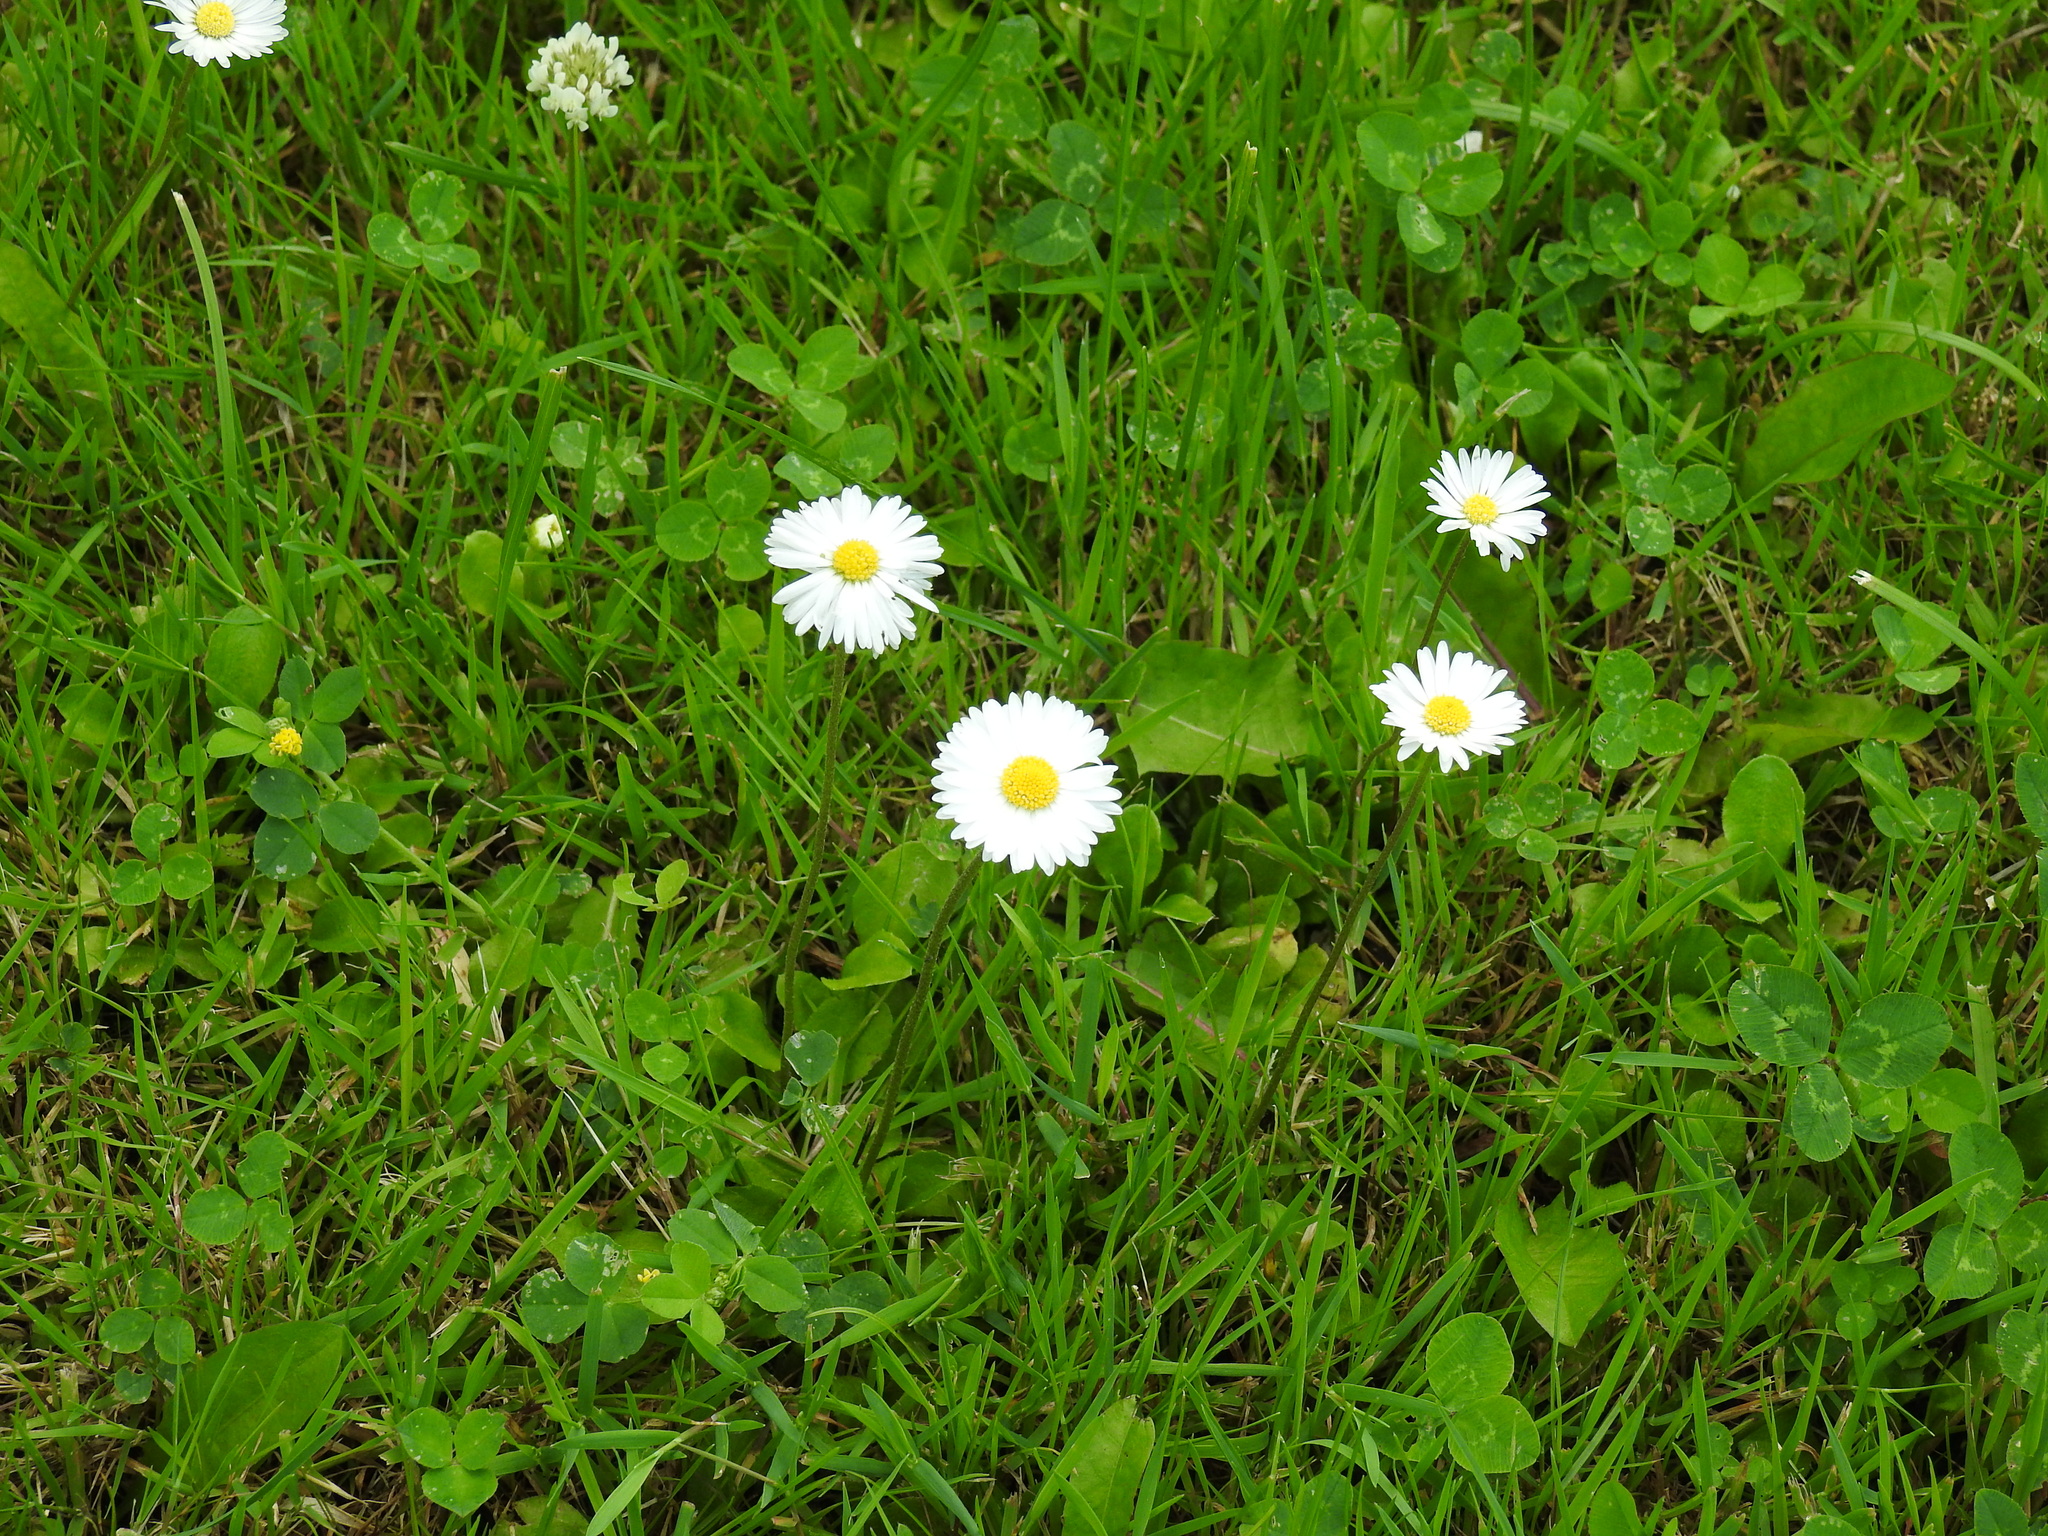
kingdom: Plantae
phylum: Tracheophyta
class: Magnoliopsida
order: Asterales
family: Asteraceae
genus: Bellis
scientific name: Bellis perennis
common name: Lawndaisy
